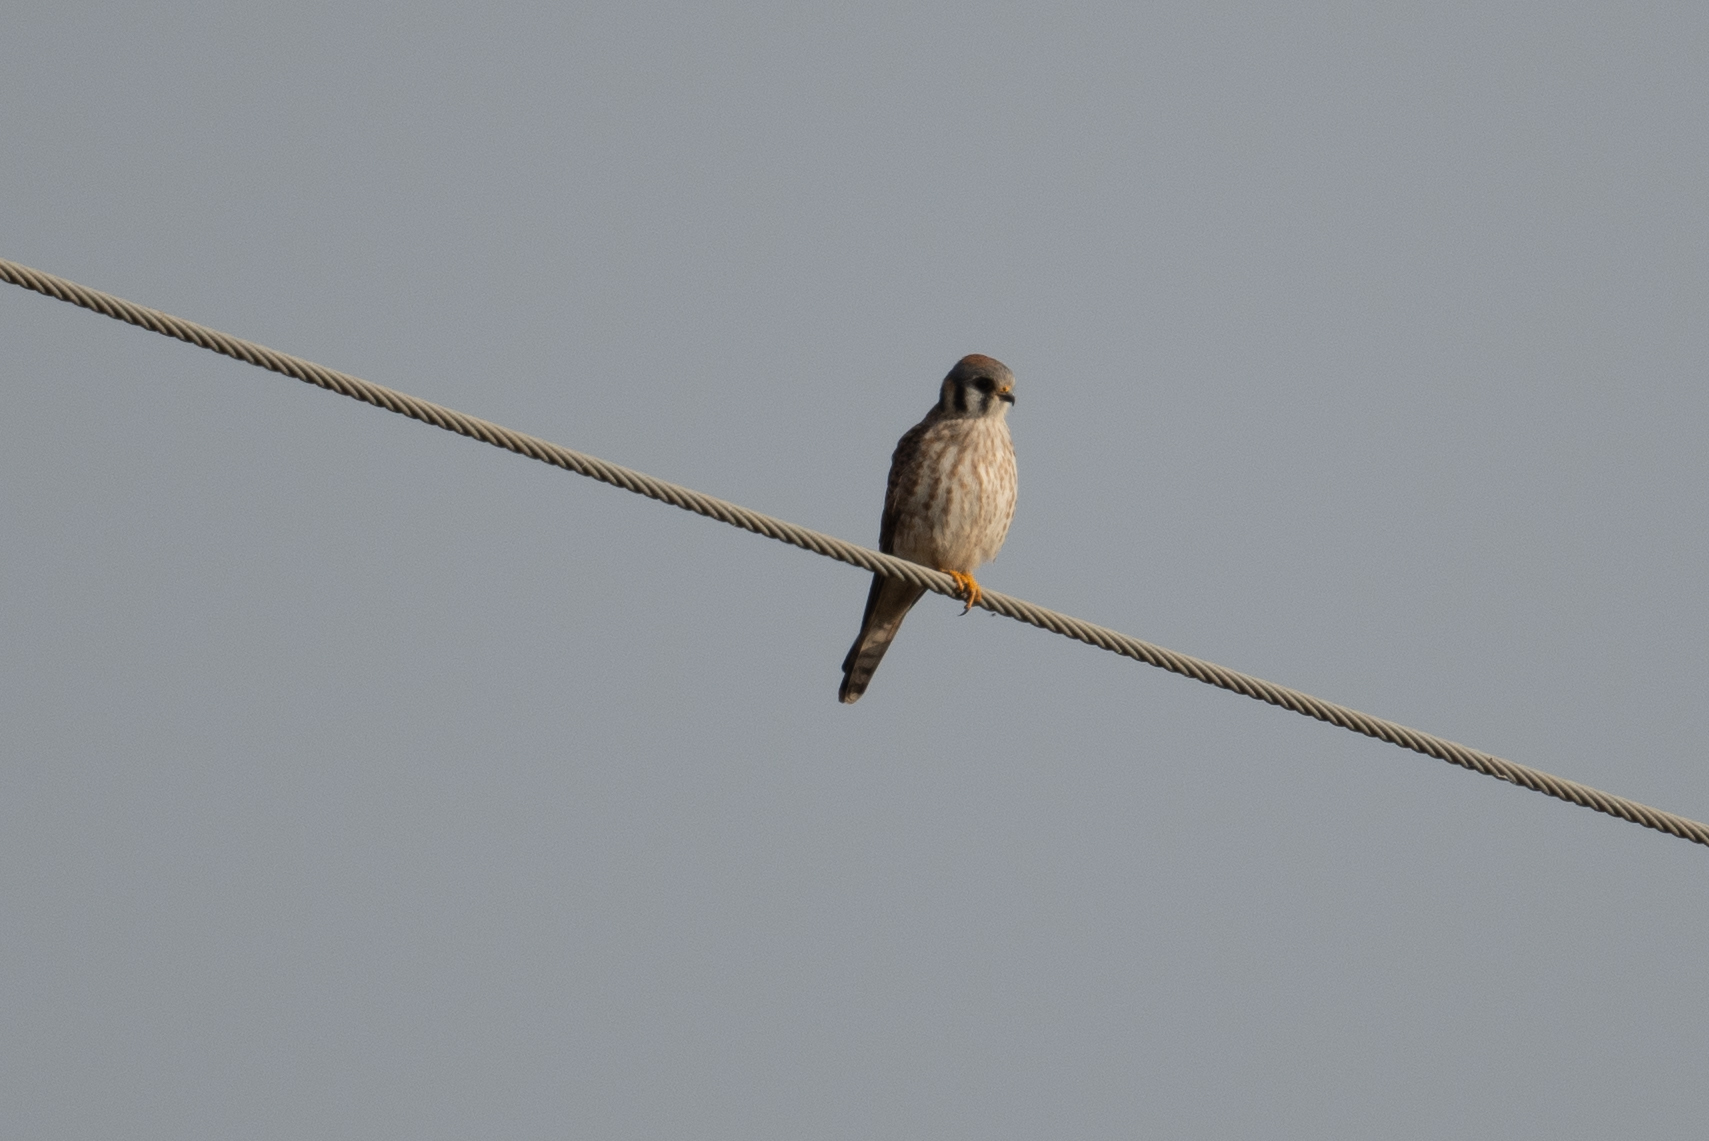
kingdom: Animalia
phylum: Chordata
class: Aves
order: Falconiformes
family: Falconidae
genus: Falco
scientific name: Falco sparverius
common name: American kestrel
